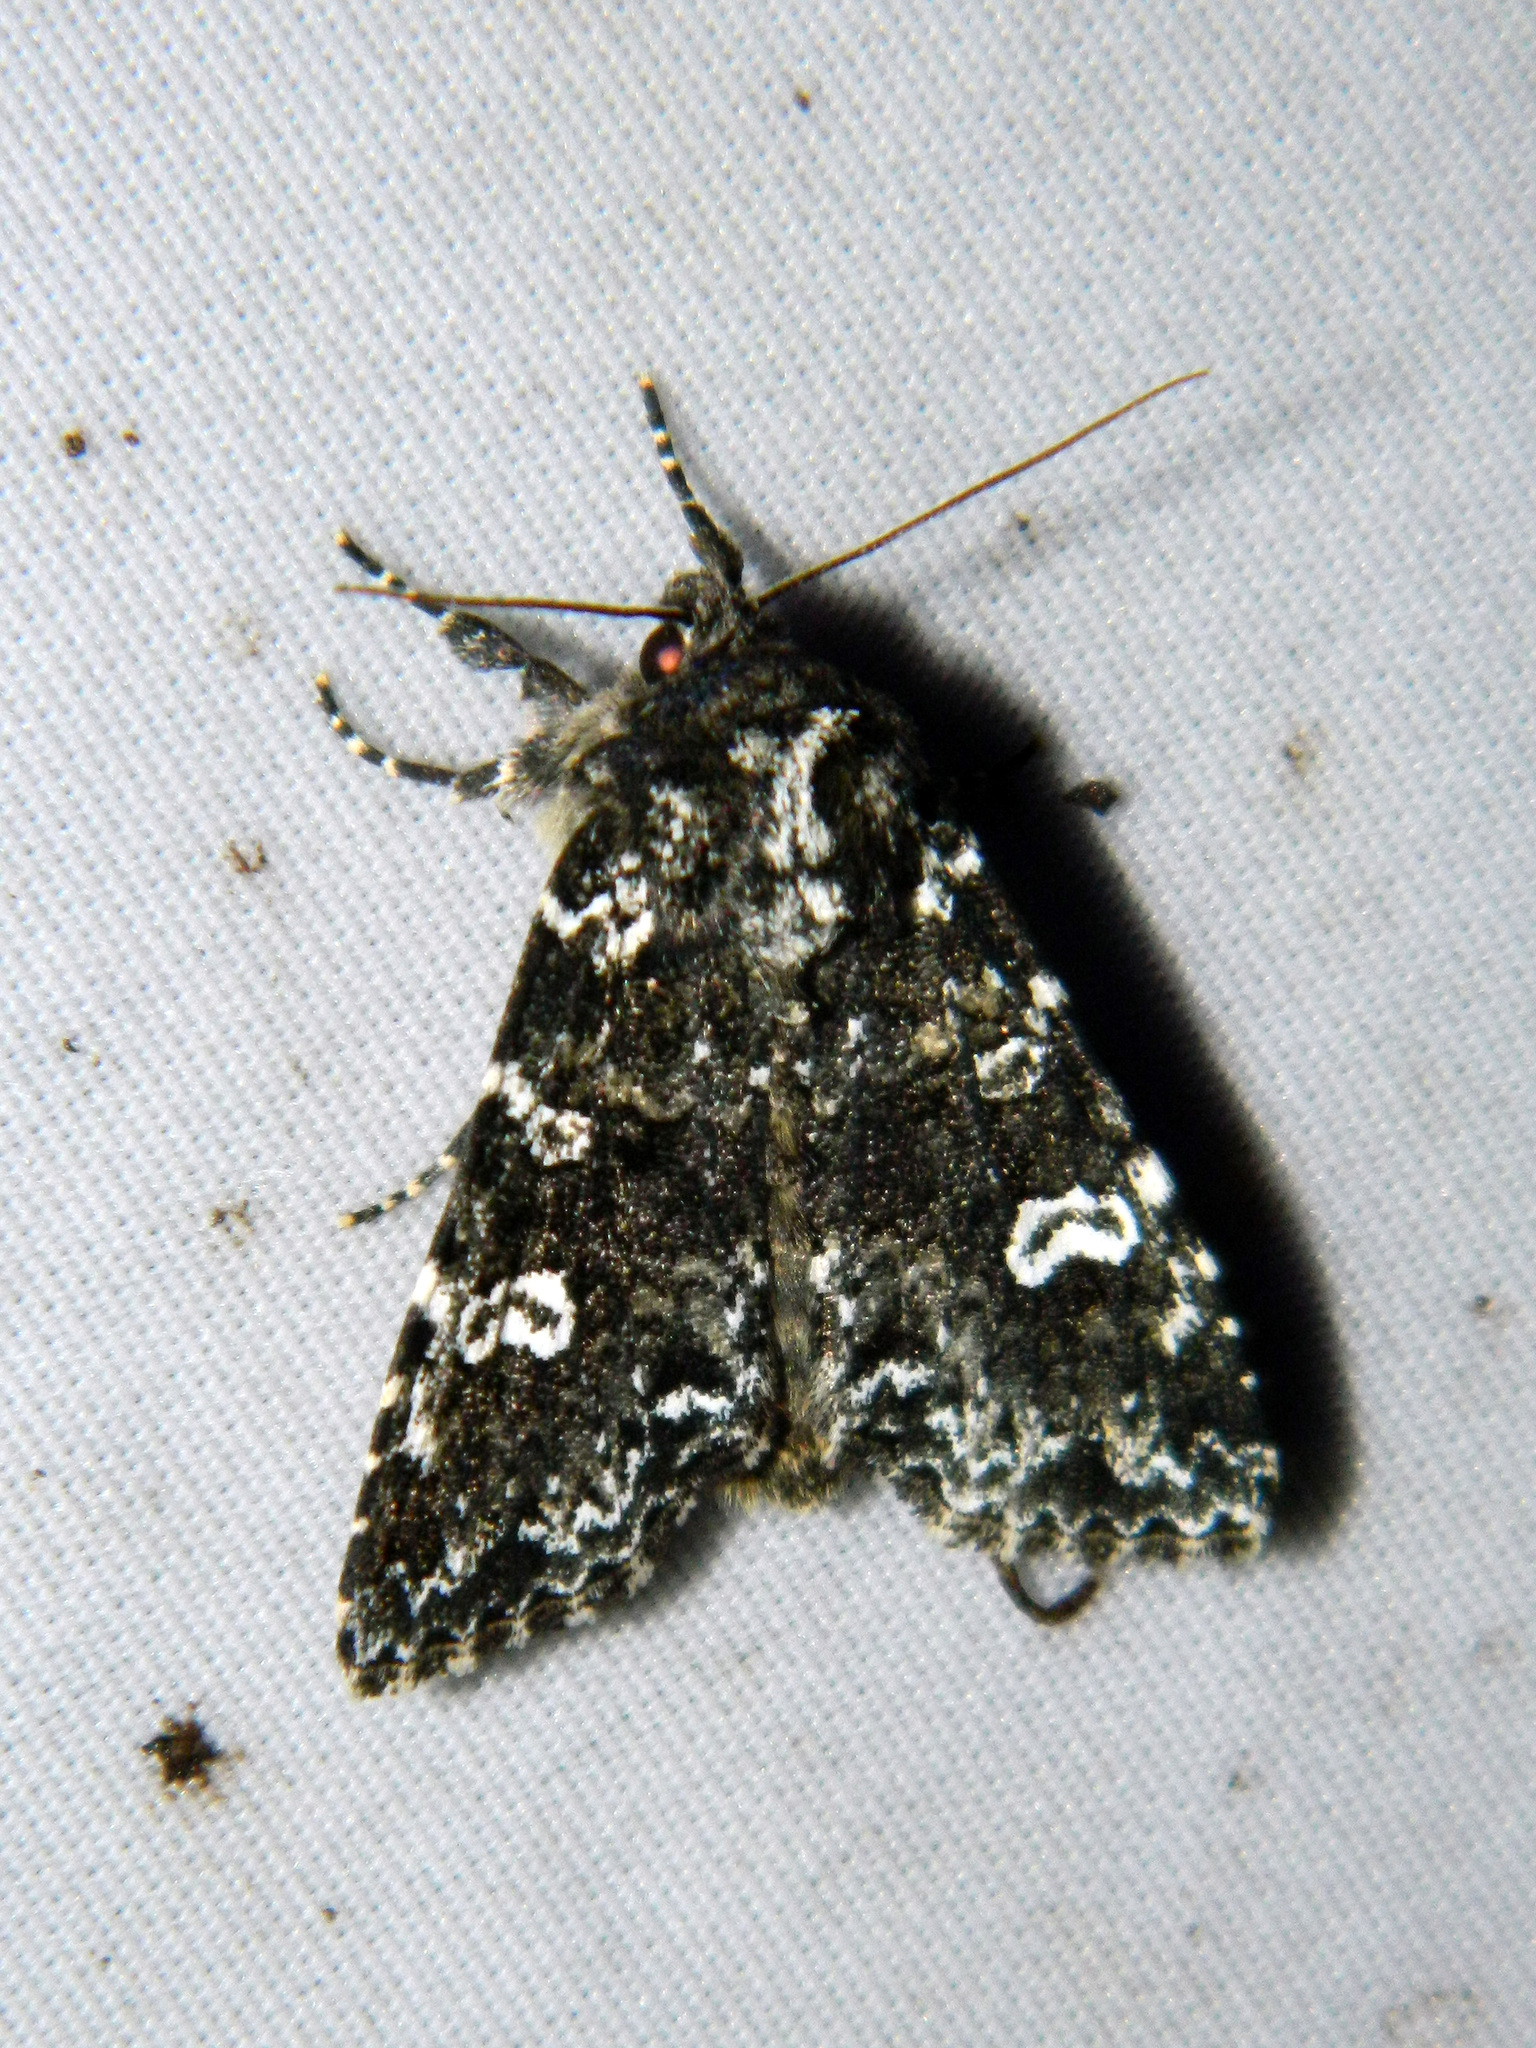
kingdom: Animalia
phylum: Arthropoda
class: Insecta
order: Lepidoptera
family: Noctuidae
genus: Melanchra
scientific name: Melanchra adjuncta
